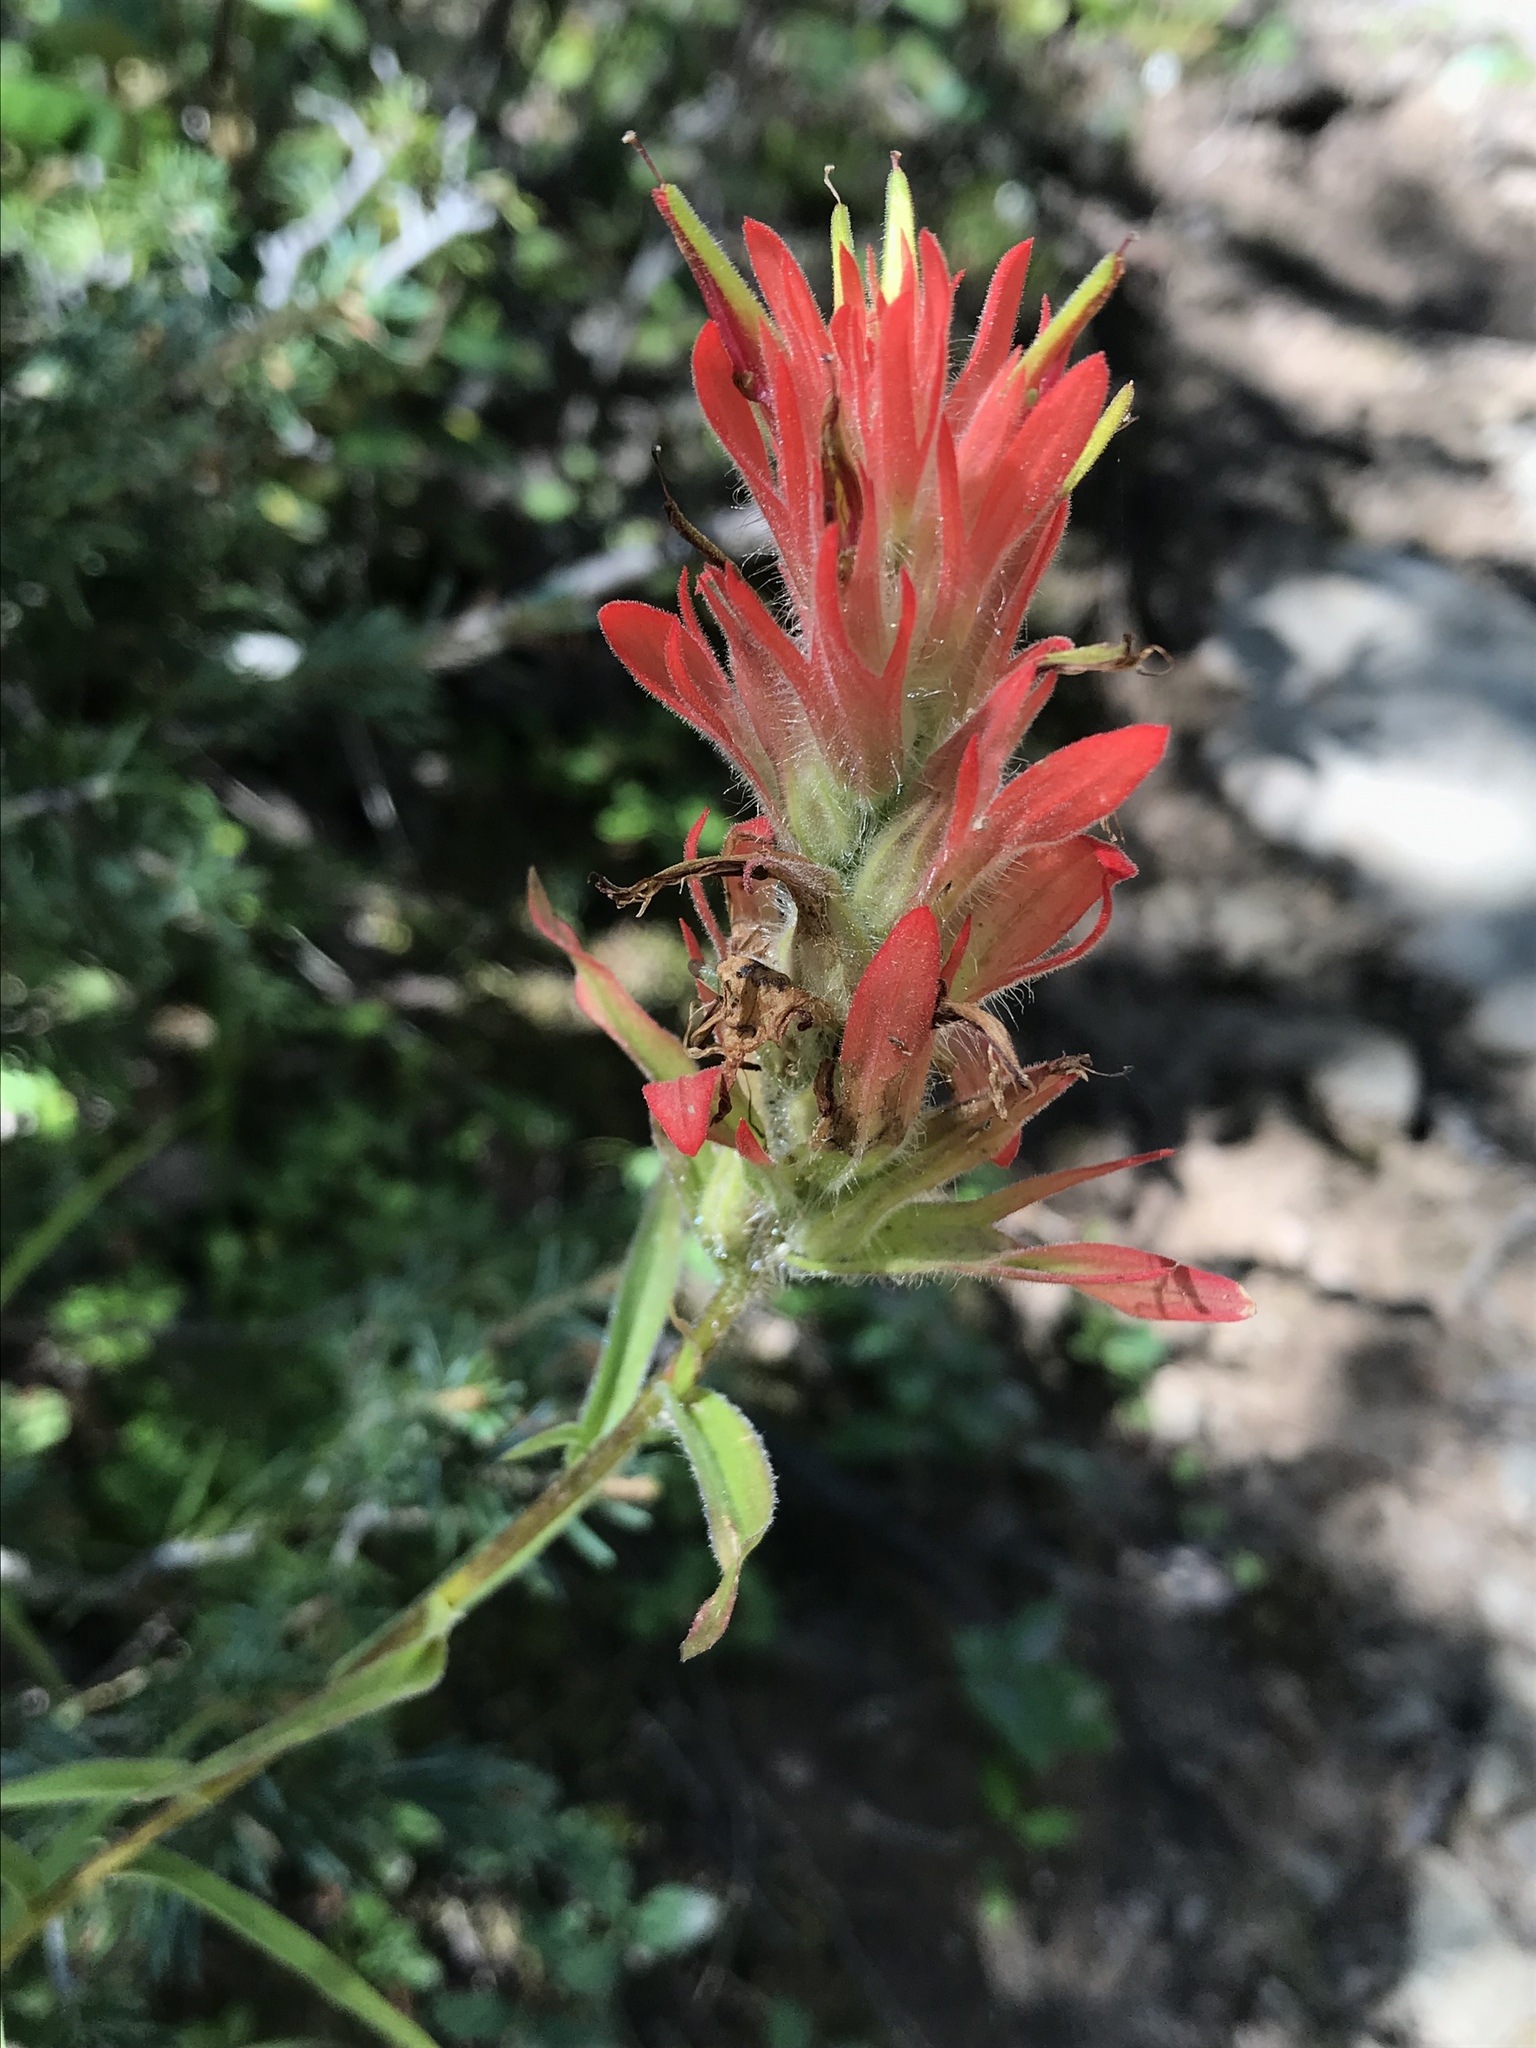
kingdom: Plantae
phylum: Tracheophyta
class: Magnoliopsida
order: Lamiales
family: Orobanchaceae
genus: Castilleja
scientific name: Castilleja miniata
